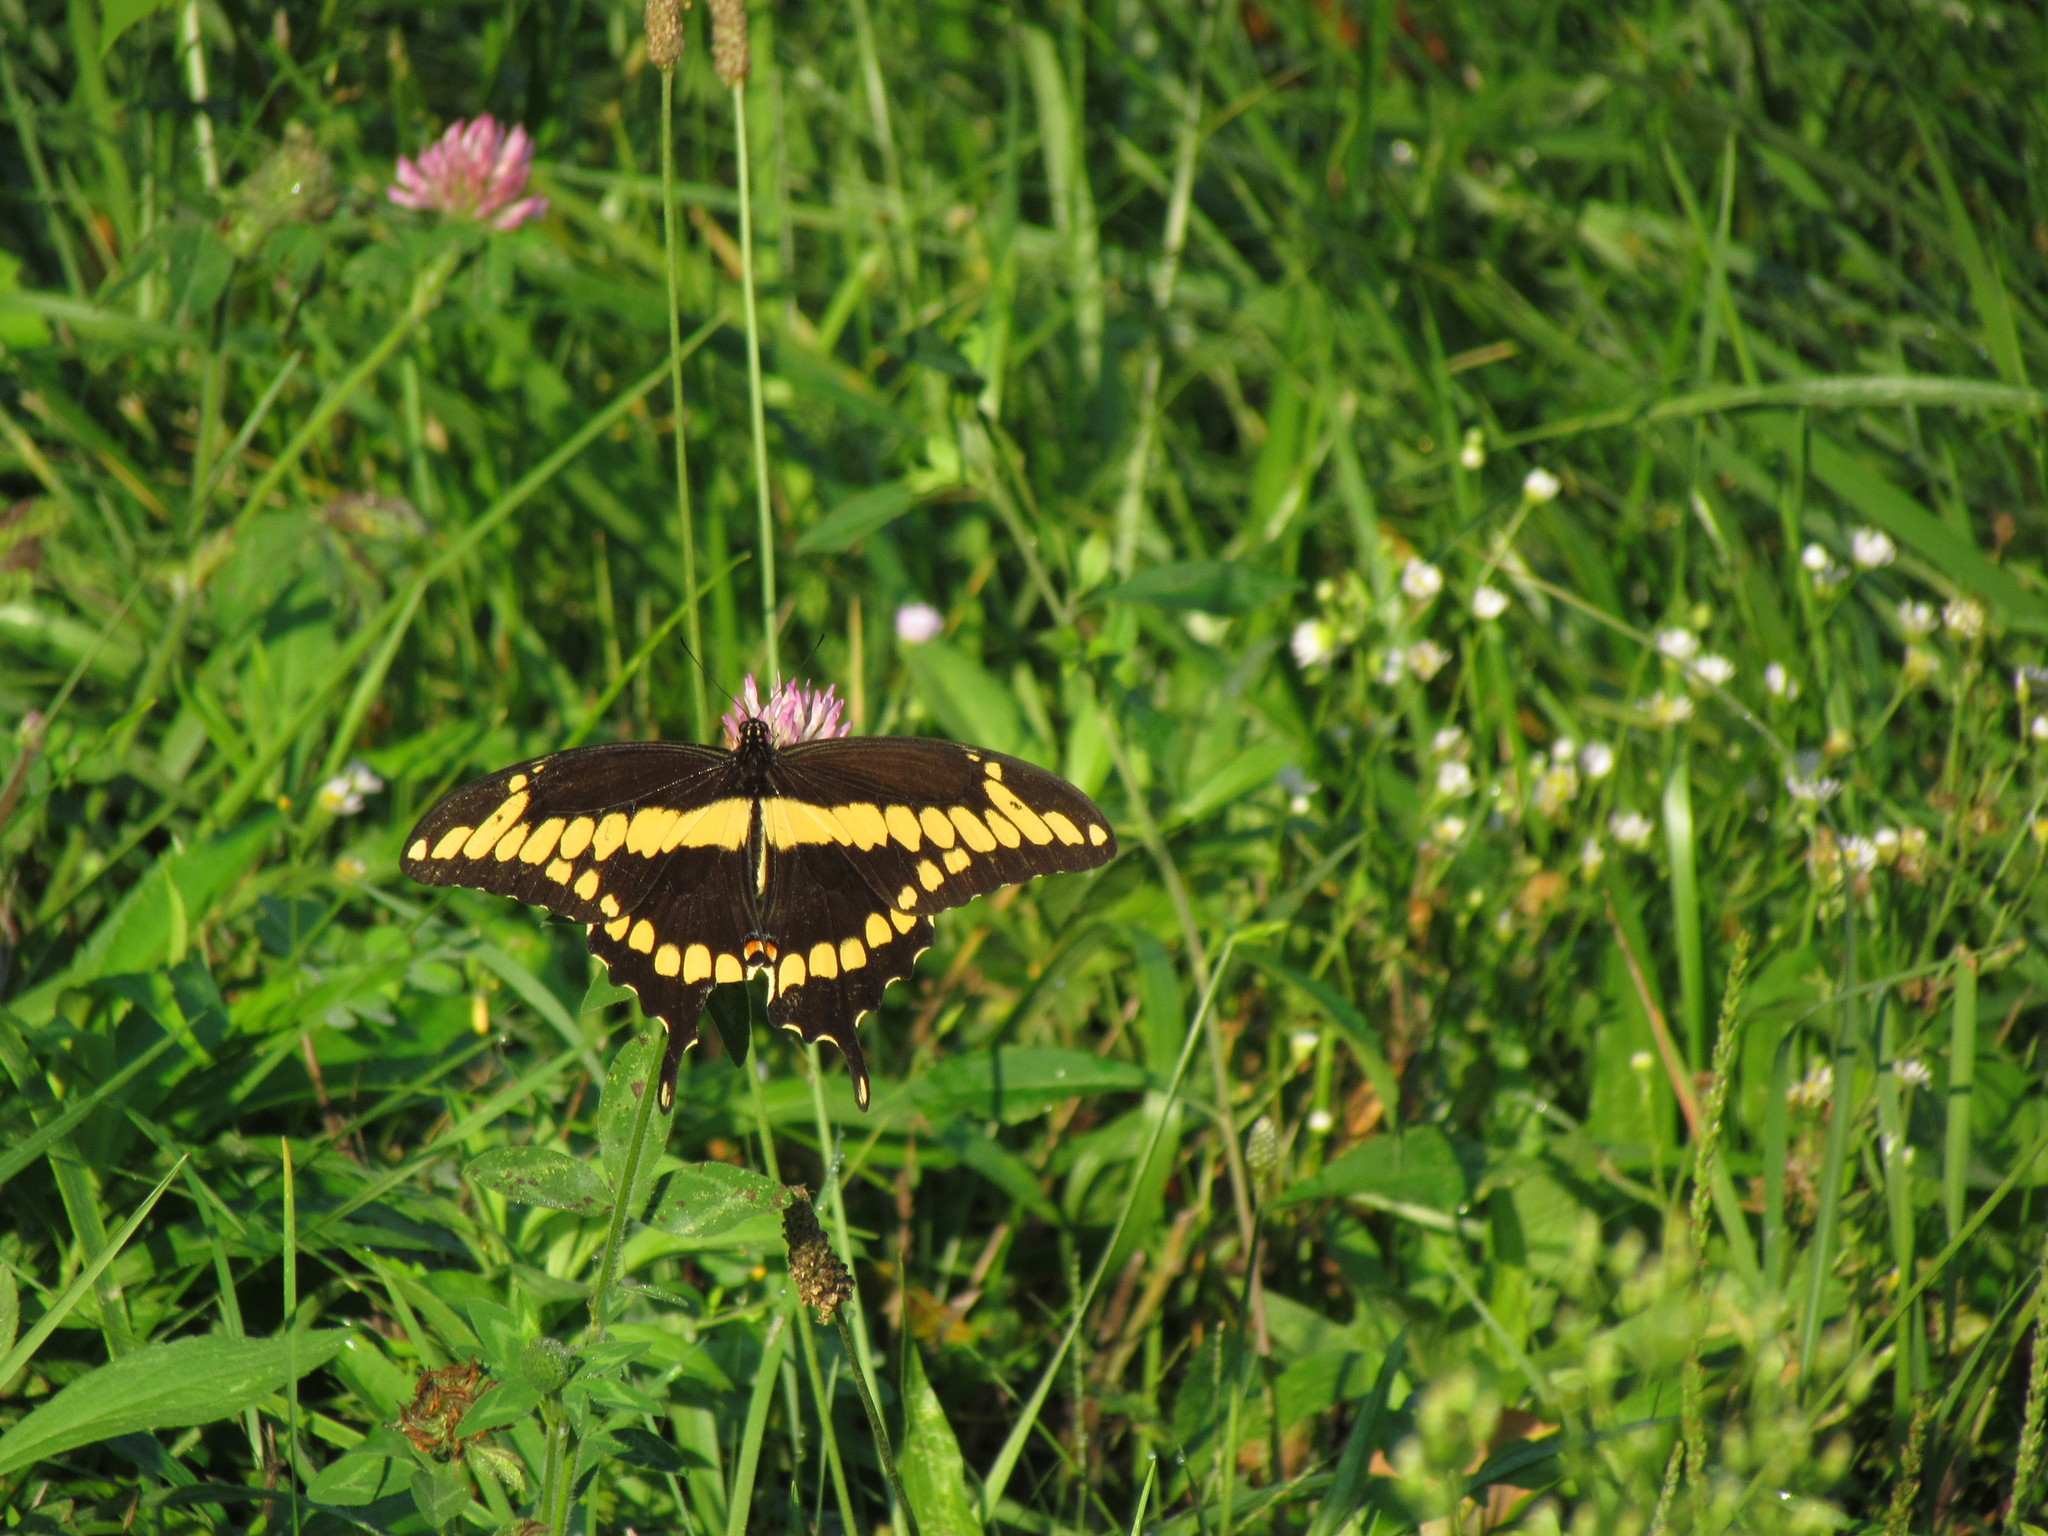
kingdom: Animalia
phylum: Arthropoda
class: Insecta
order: Lepidoptera
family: Papilionidae
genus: Papilio
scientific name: Papilio cresphontes
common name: Giant swallowtail
